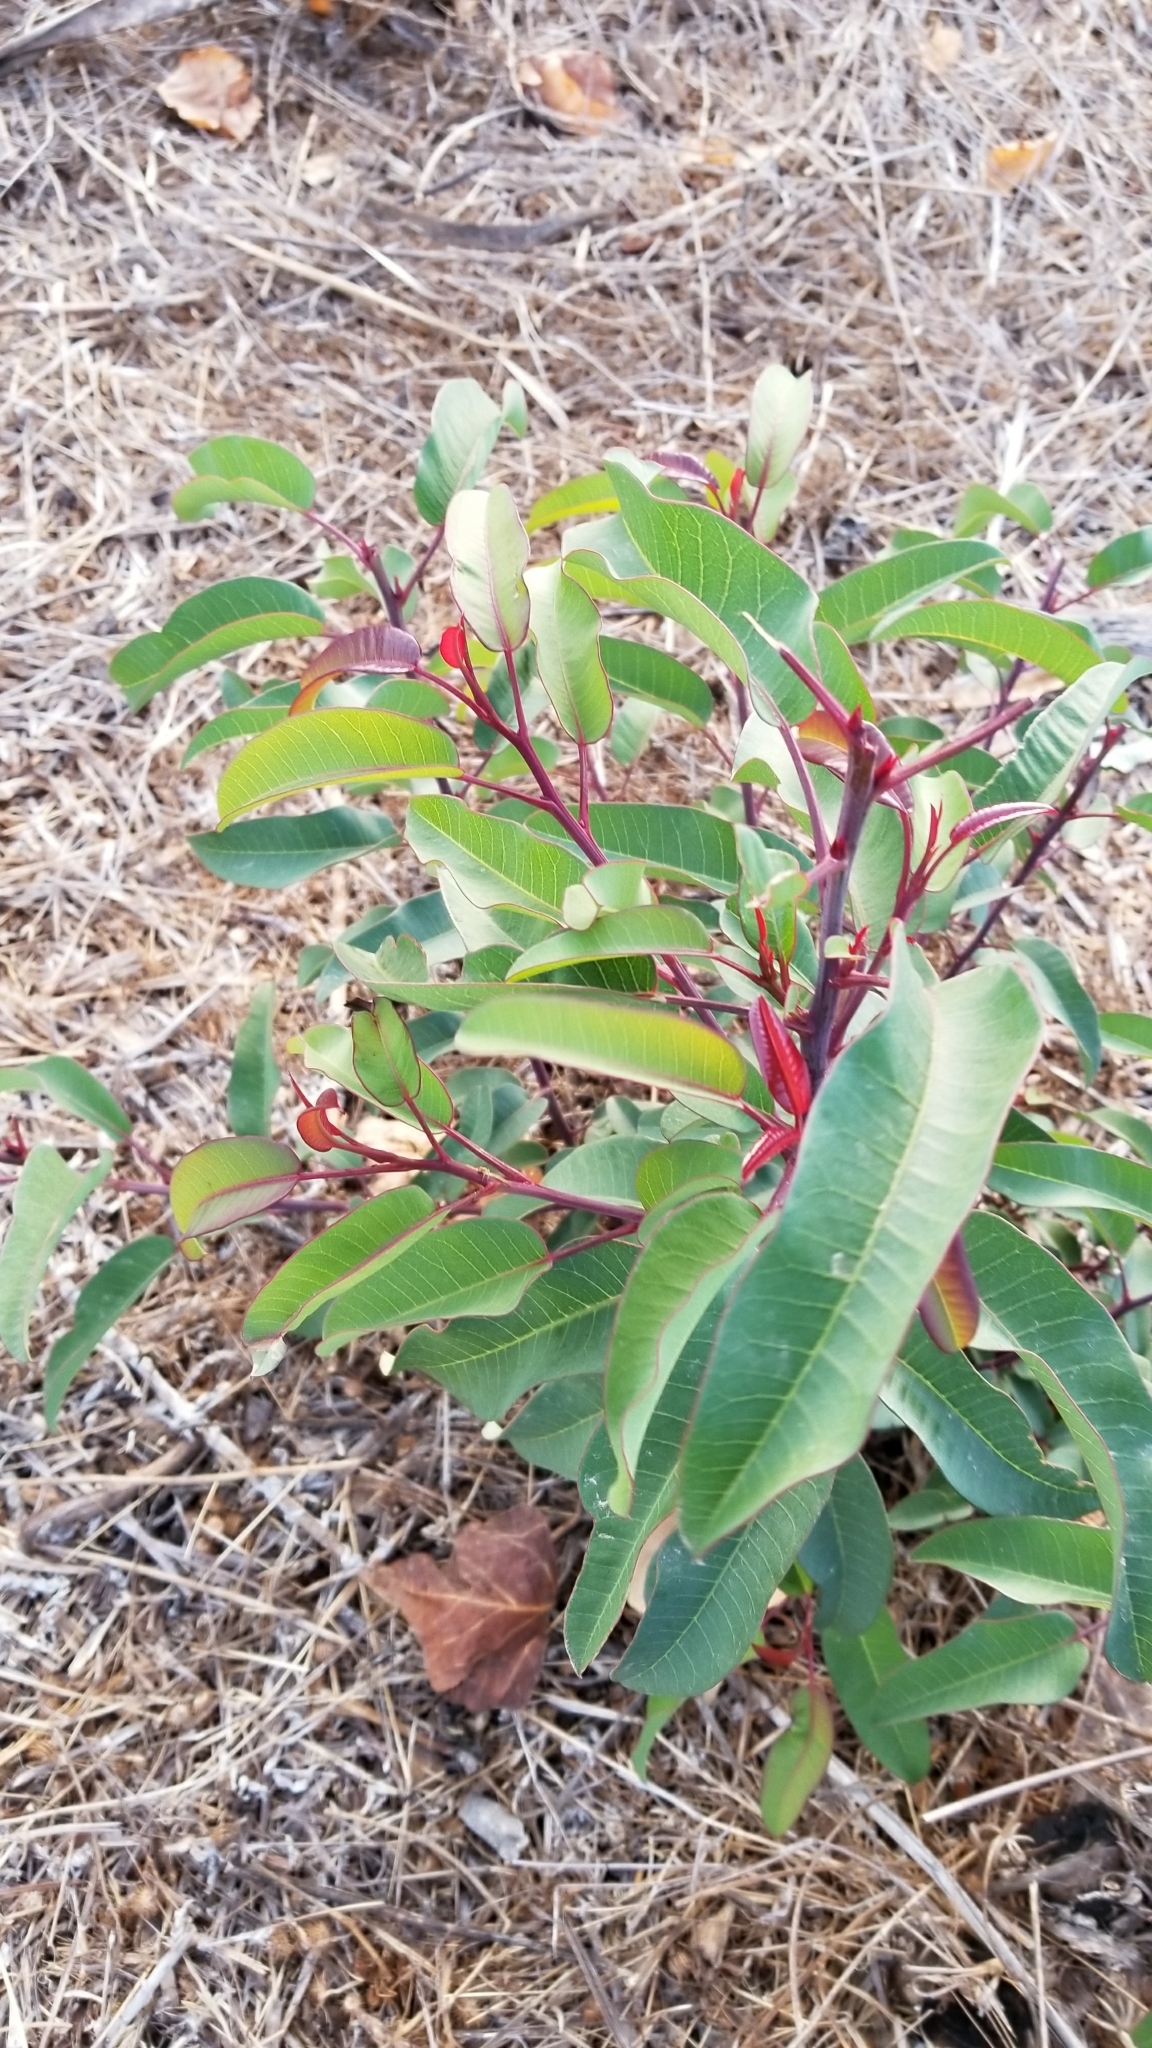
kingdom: Plantae
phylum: Tracheophyta
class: Magnoliopsida
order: Sapindales
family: Anacardiaceae
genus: Malosma
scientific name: Malosma laurina
